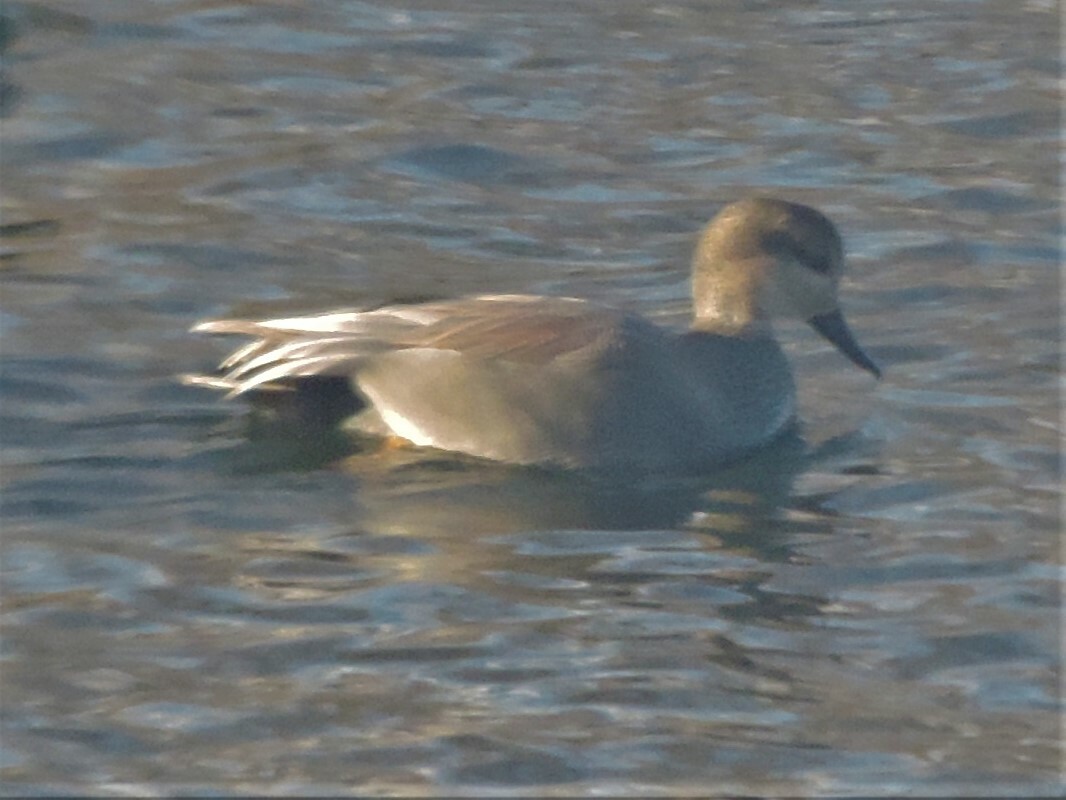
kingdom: Animalia
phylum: Chordata
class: Aves
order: Anseriformes
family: Anatidae
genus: Mareca
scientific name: Mareca strepera
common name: Gadwall
